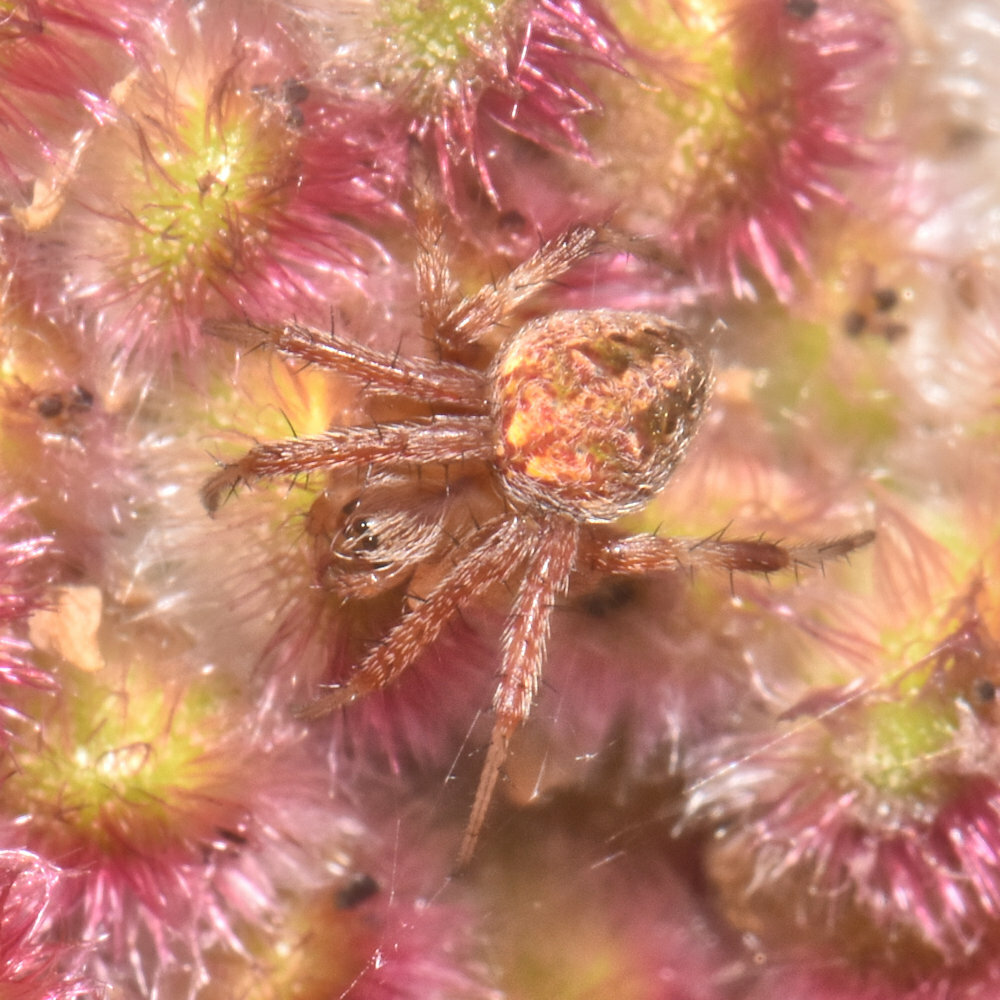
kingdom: Animalia
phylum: Arthropoda
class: Arachnida
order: Araneae
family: Araneidae
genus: Neoscona
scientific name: Neoscona arabesca
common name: Orb weavers
